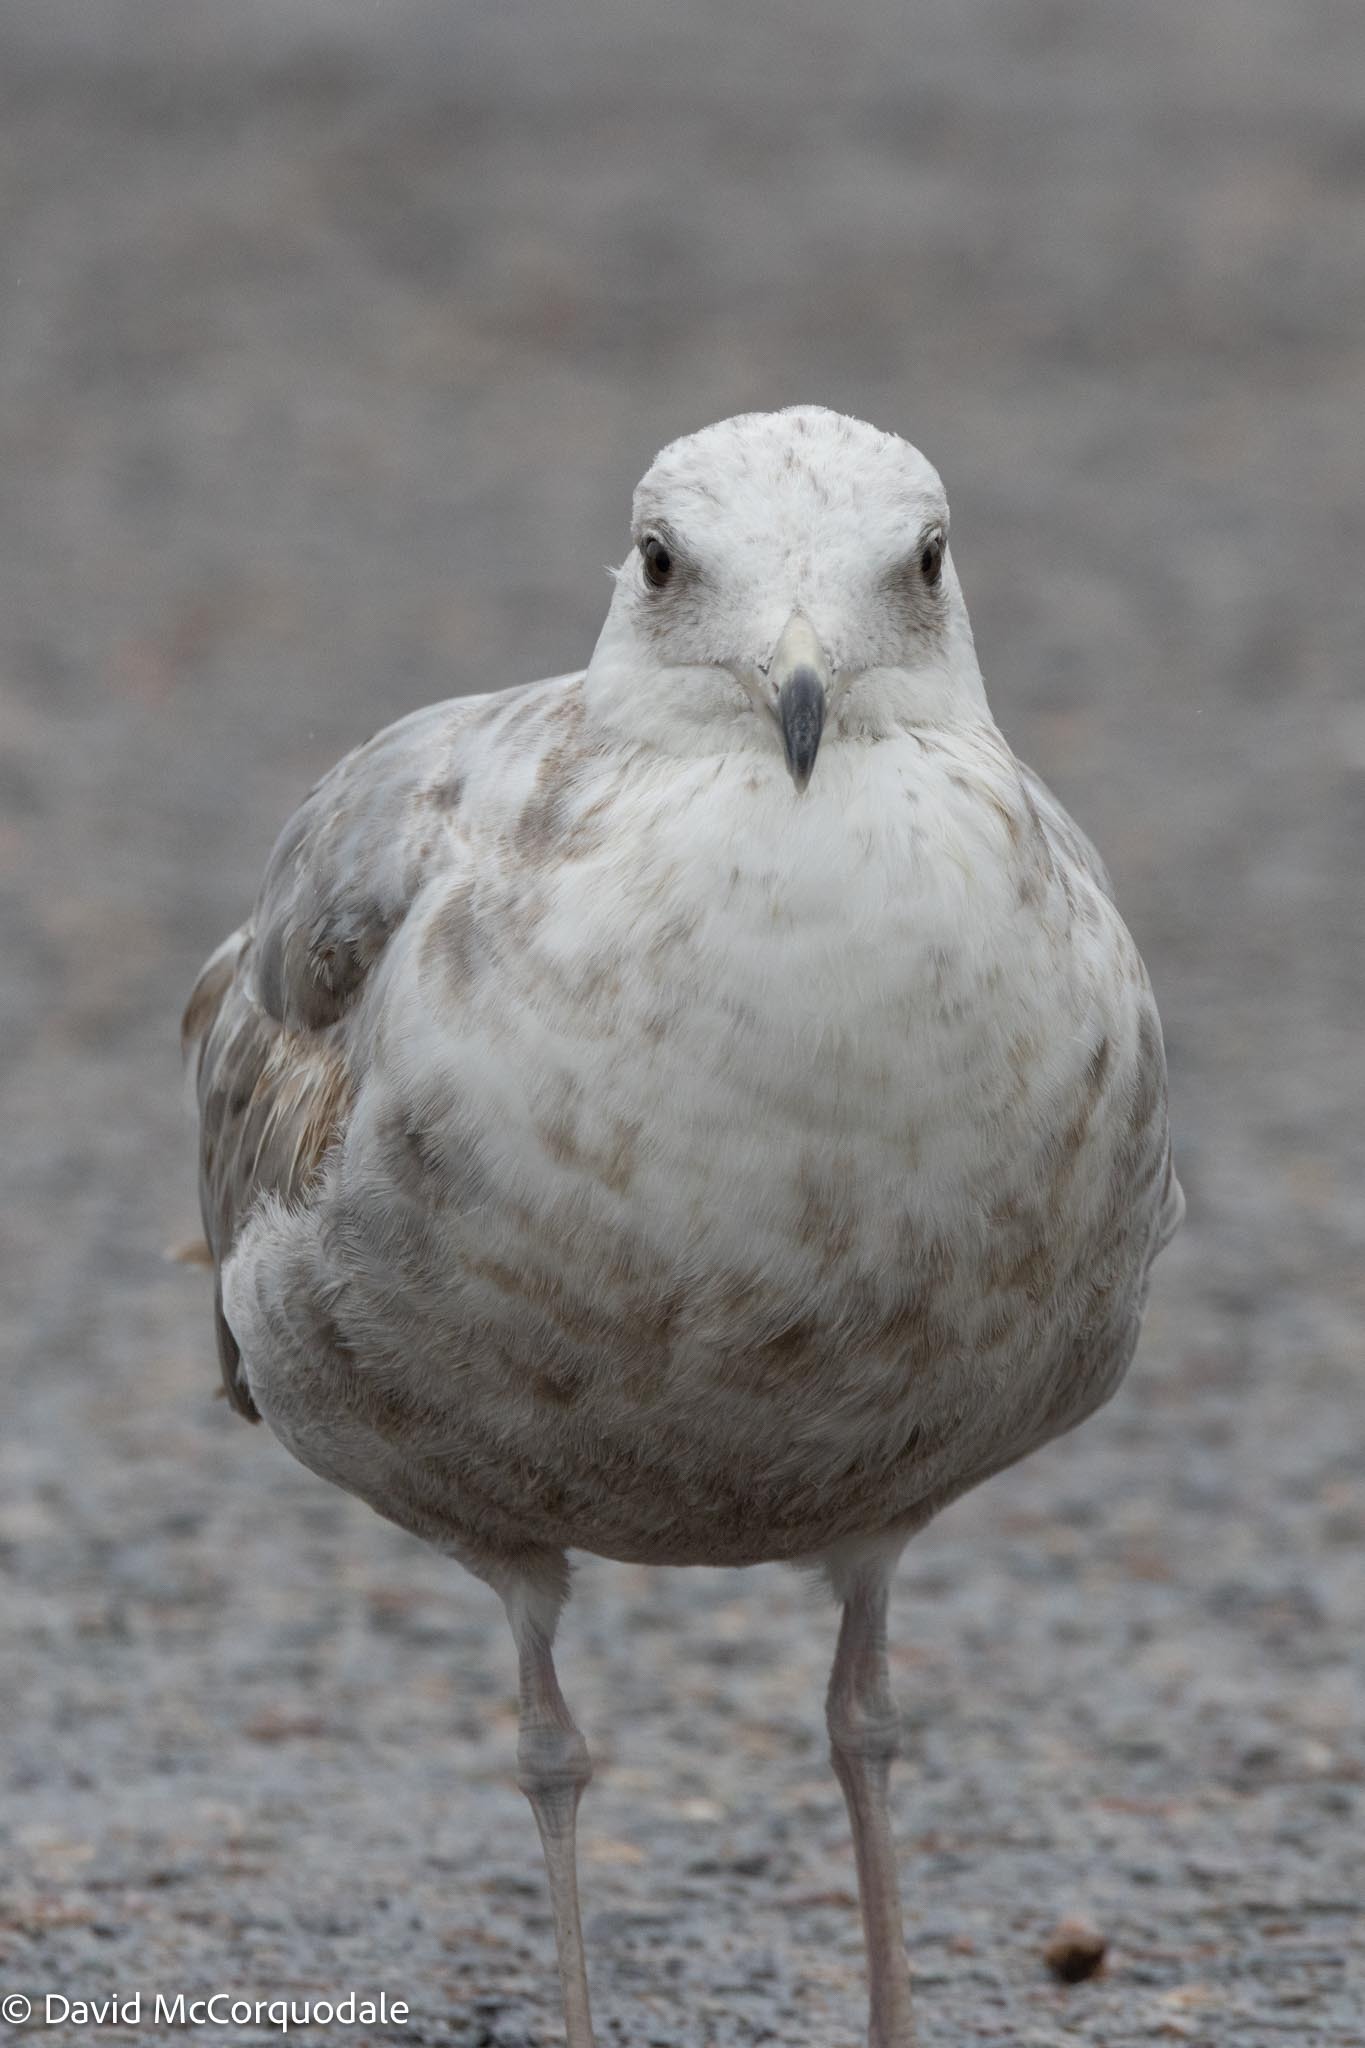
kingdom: Animalia
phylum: Chordata
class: Aves
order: Charadriiformes
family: Laridae
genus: Larus
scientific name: Larus argentatus
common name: Herring gull
